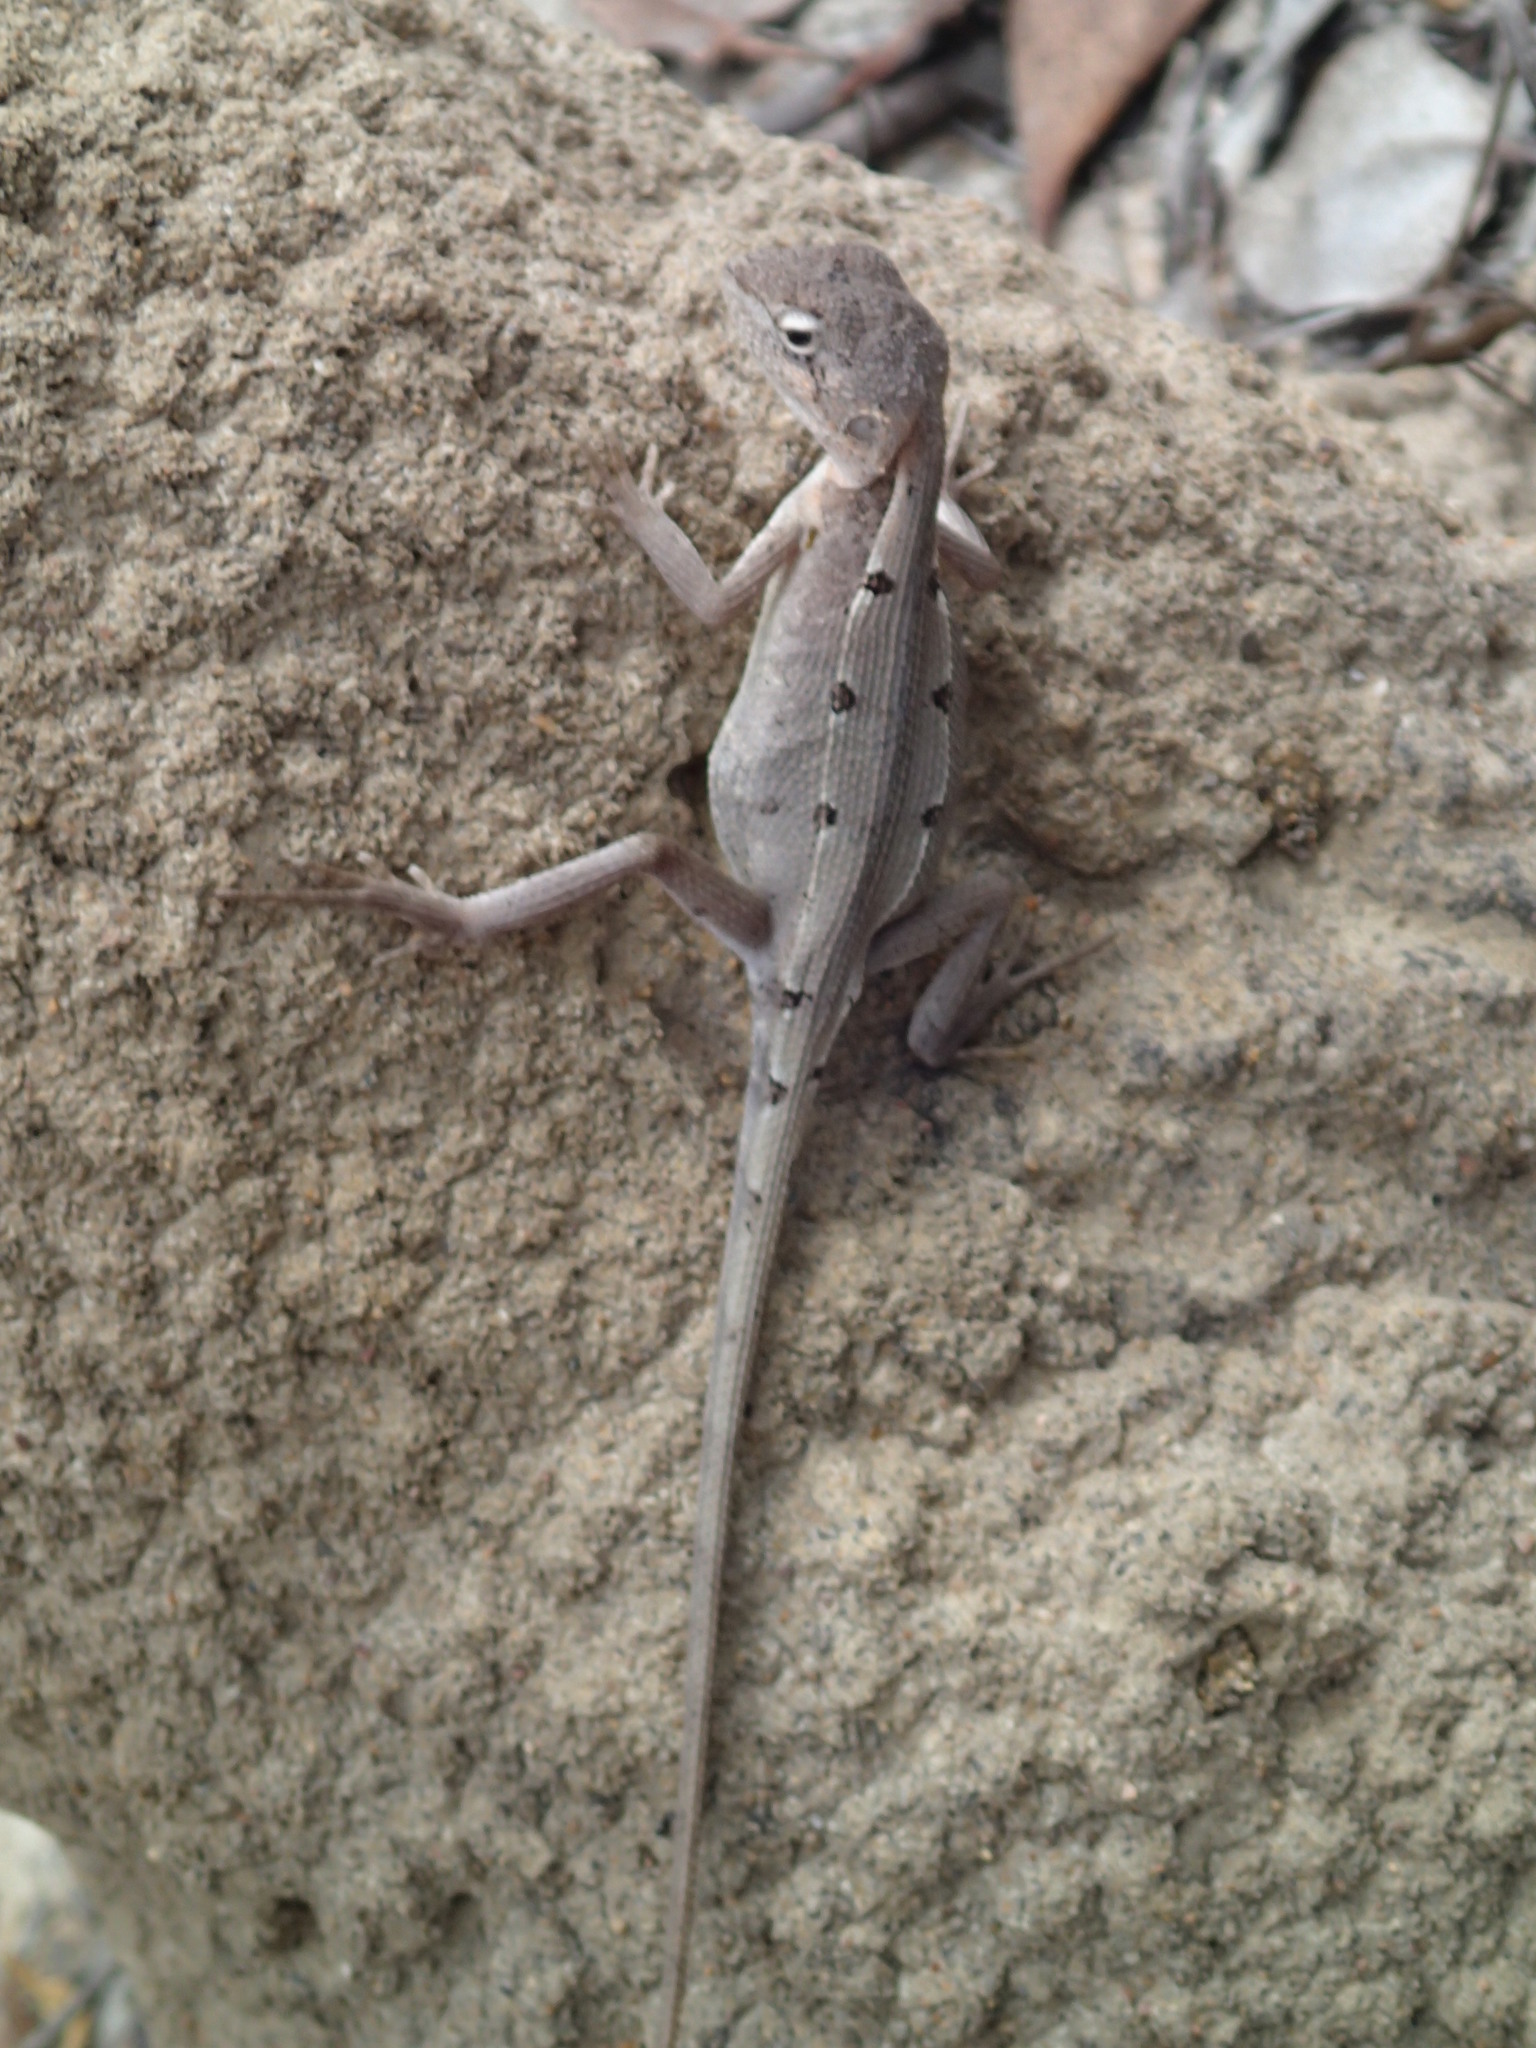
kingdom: Animalia
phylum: Chordata
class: Squamata
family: Agamidae
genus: Diporiphora
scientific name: Diporiphora australis
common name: Eastern two-line dragon
